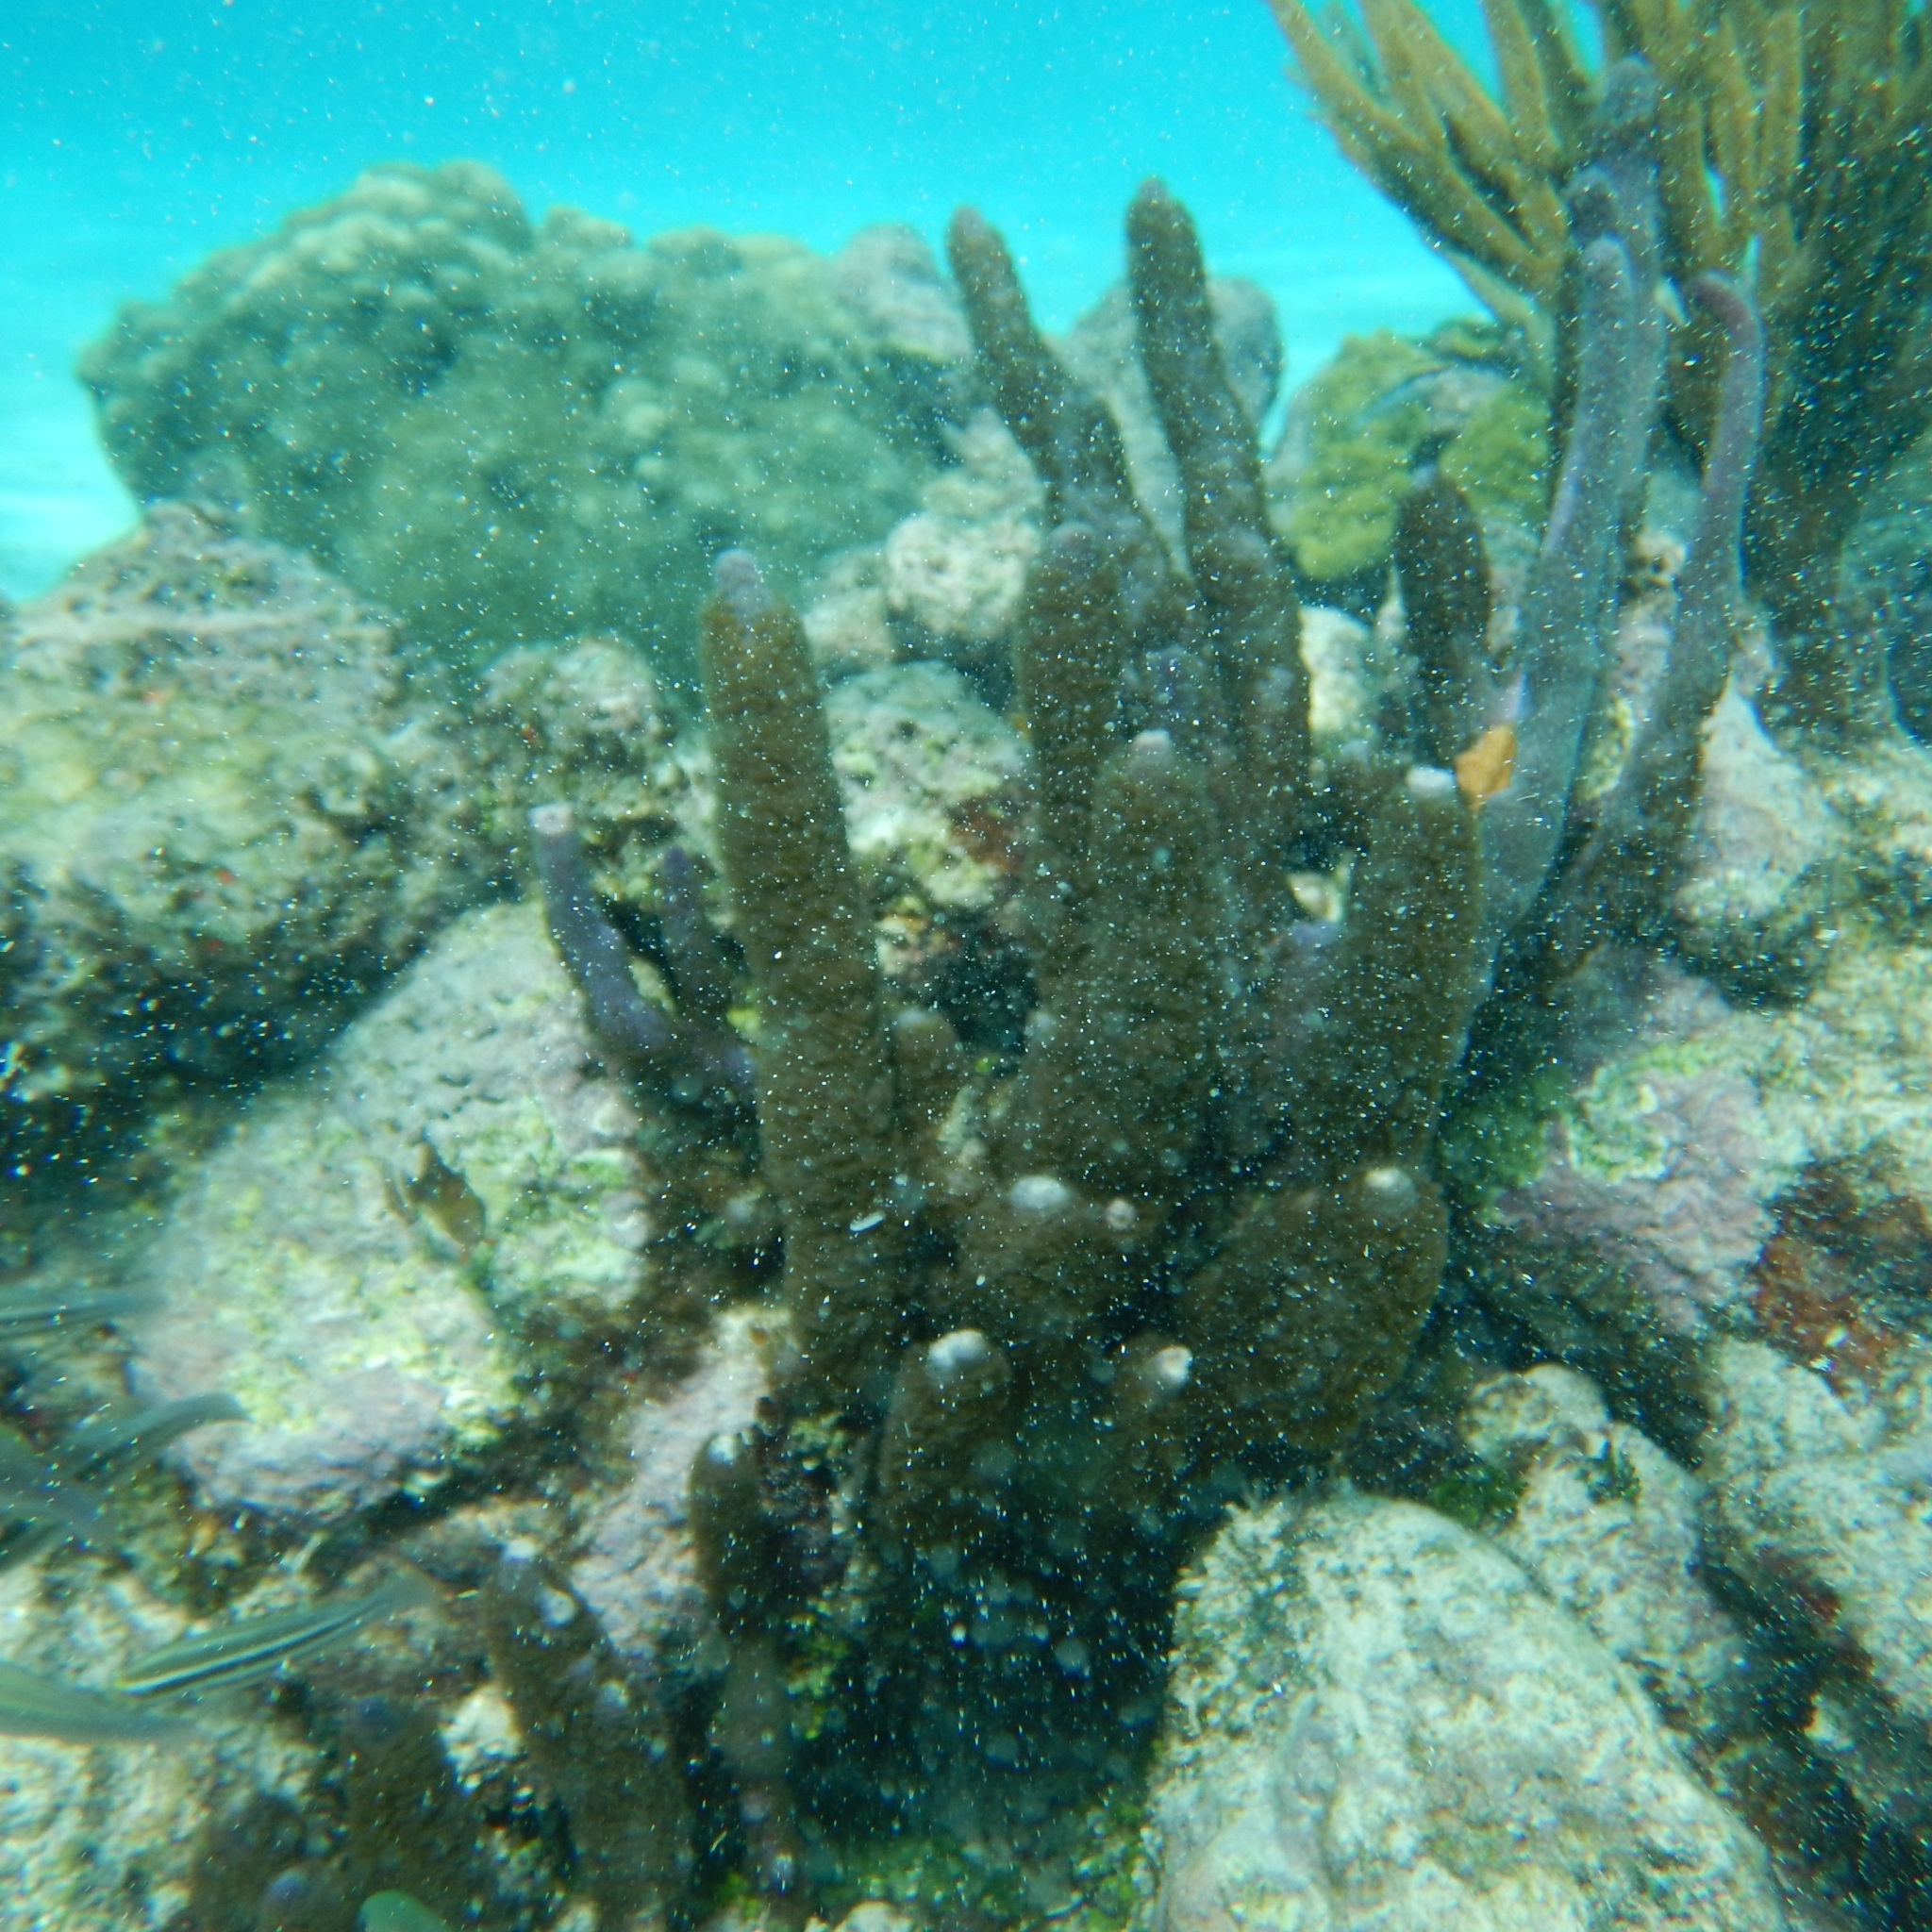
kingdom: Animalia
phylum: Cnidaria
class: Anthozoa
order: Scleralcyonacea
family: Briareidae
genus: Briareum
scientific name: Briareum asbestinum
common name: Corky sea finger
